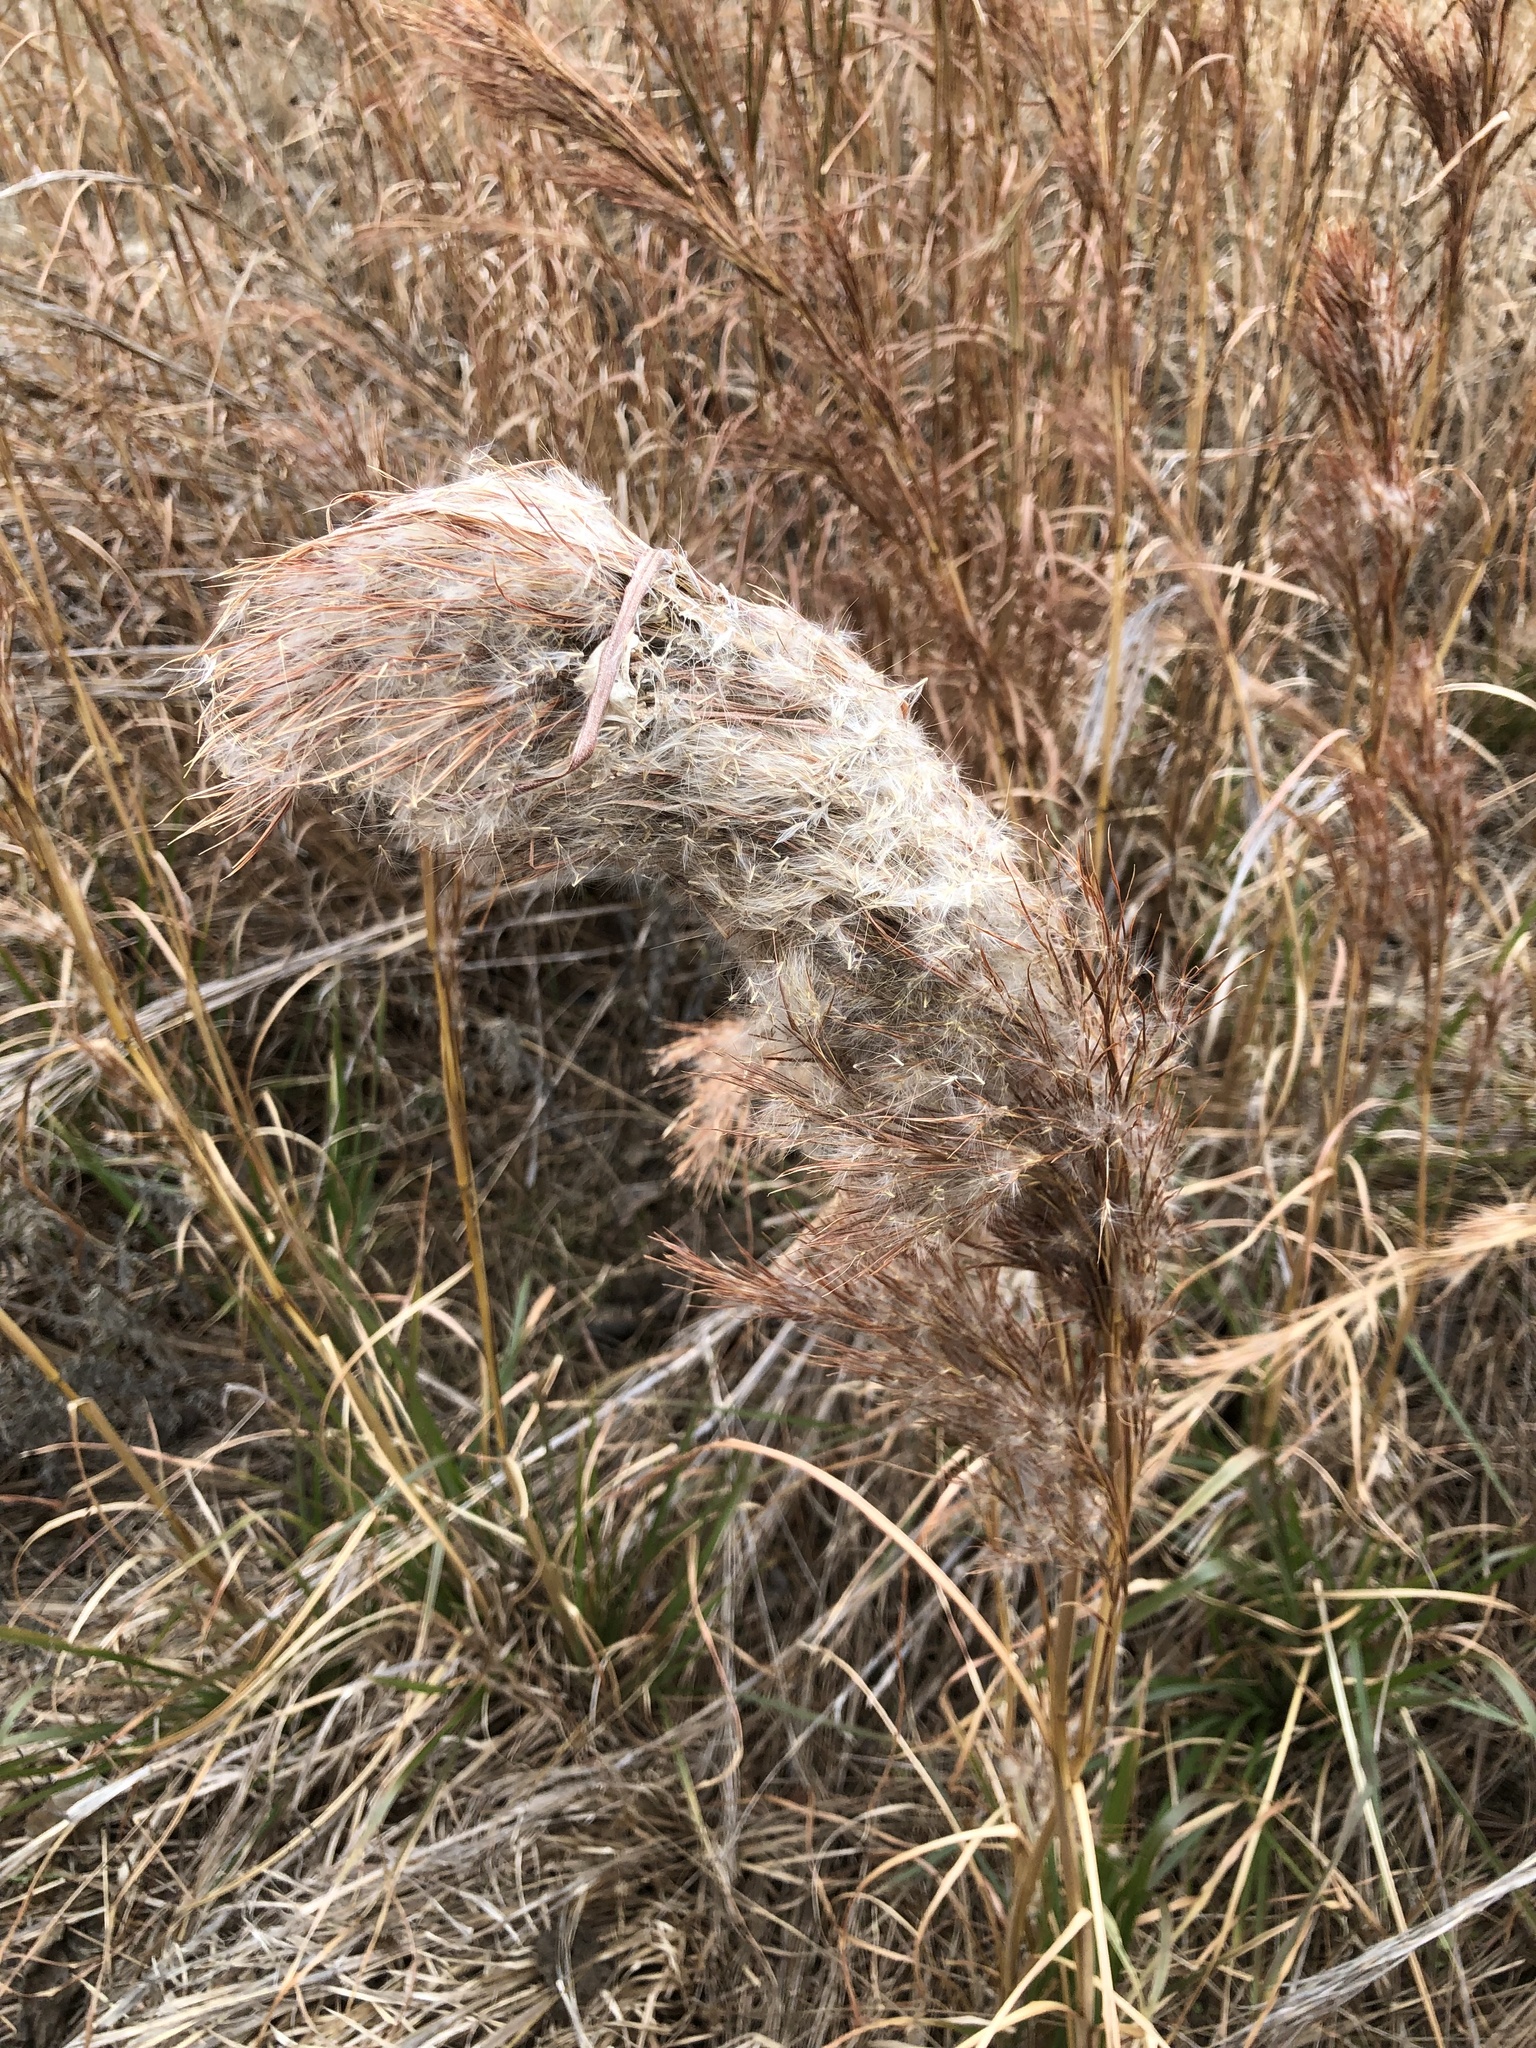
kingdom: Plantae
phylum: Tracheophyta
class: Liliopsida
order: Poales
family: Poaceae
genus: Andropogon
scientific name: Andropogon tenuispatheus
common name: Bushy bluestem
